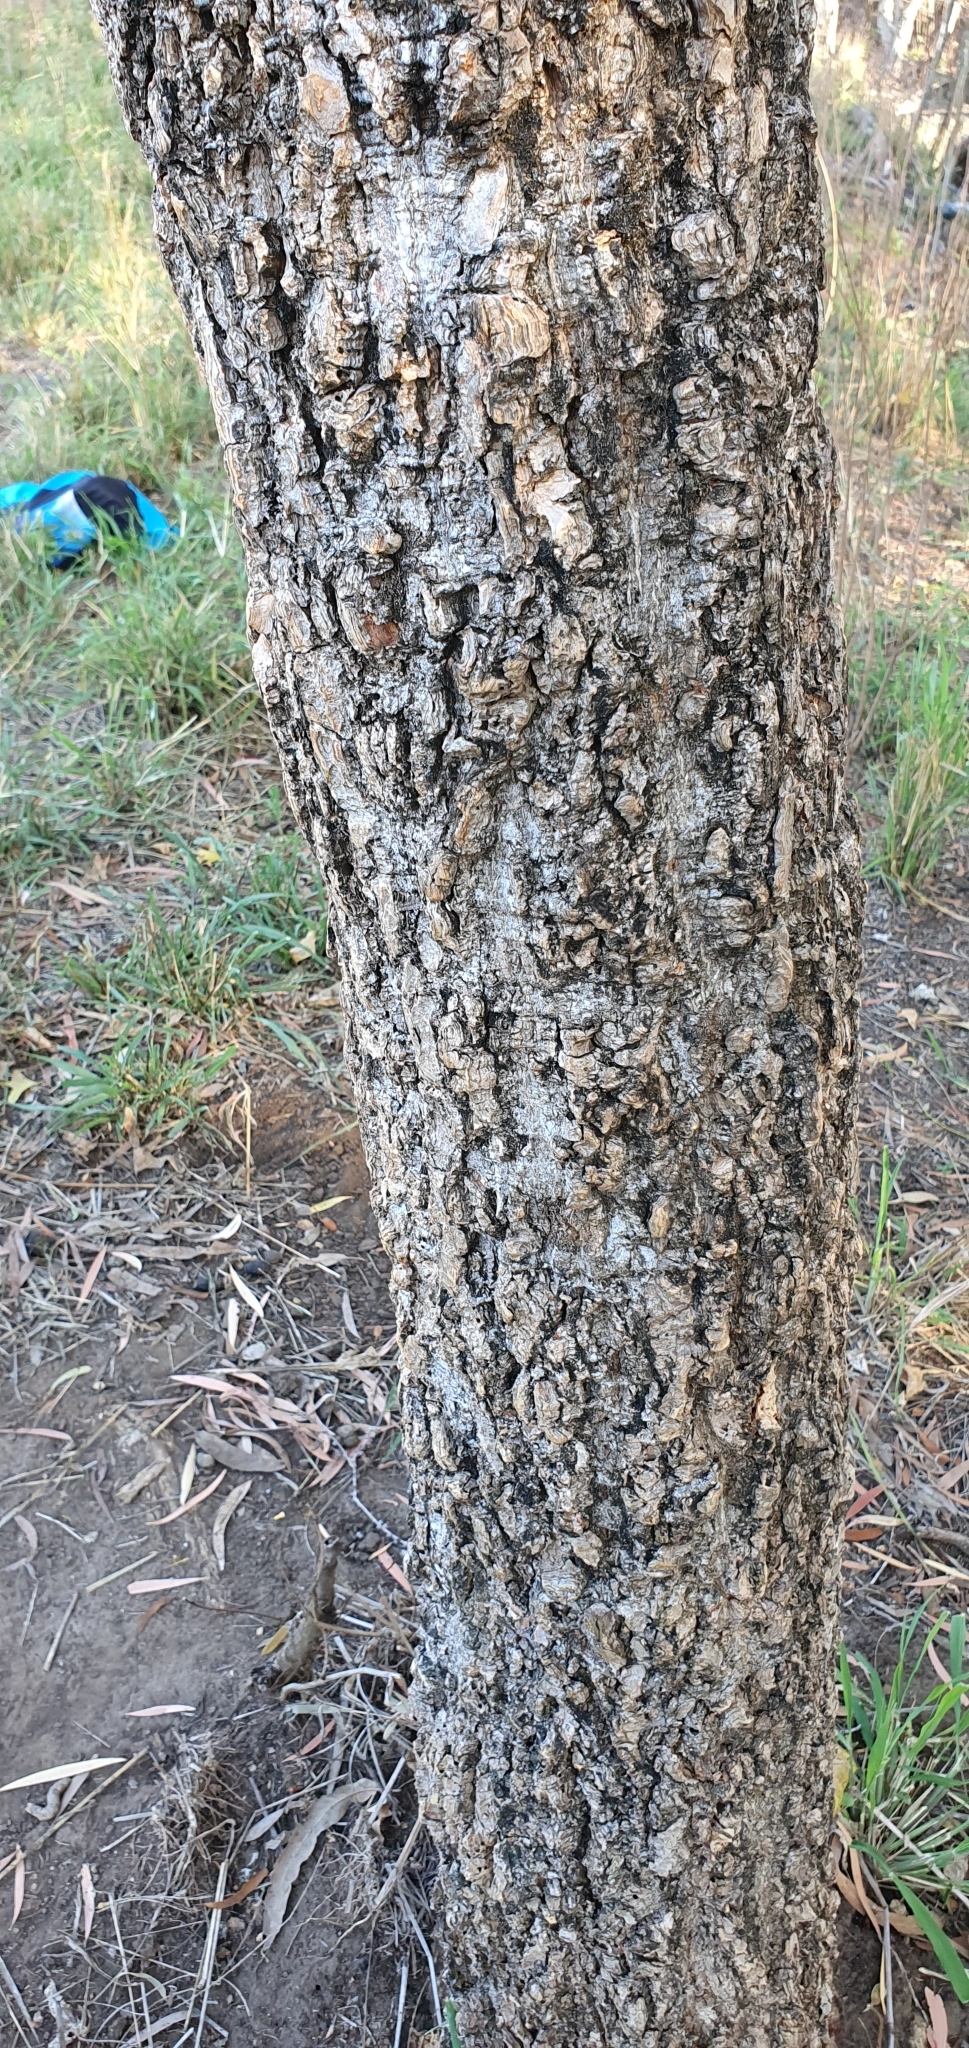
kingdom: Plantae
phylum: Tracheophyta
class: Magnoliopsida
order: Fabales
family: Fabaceae
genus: Erythrina
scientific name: Erythrina vespertilio
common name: Bat-wing coral tree
